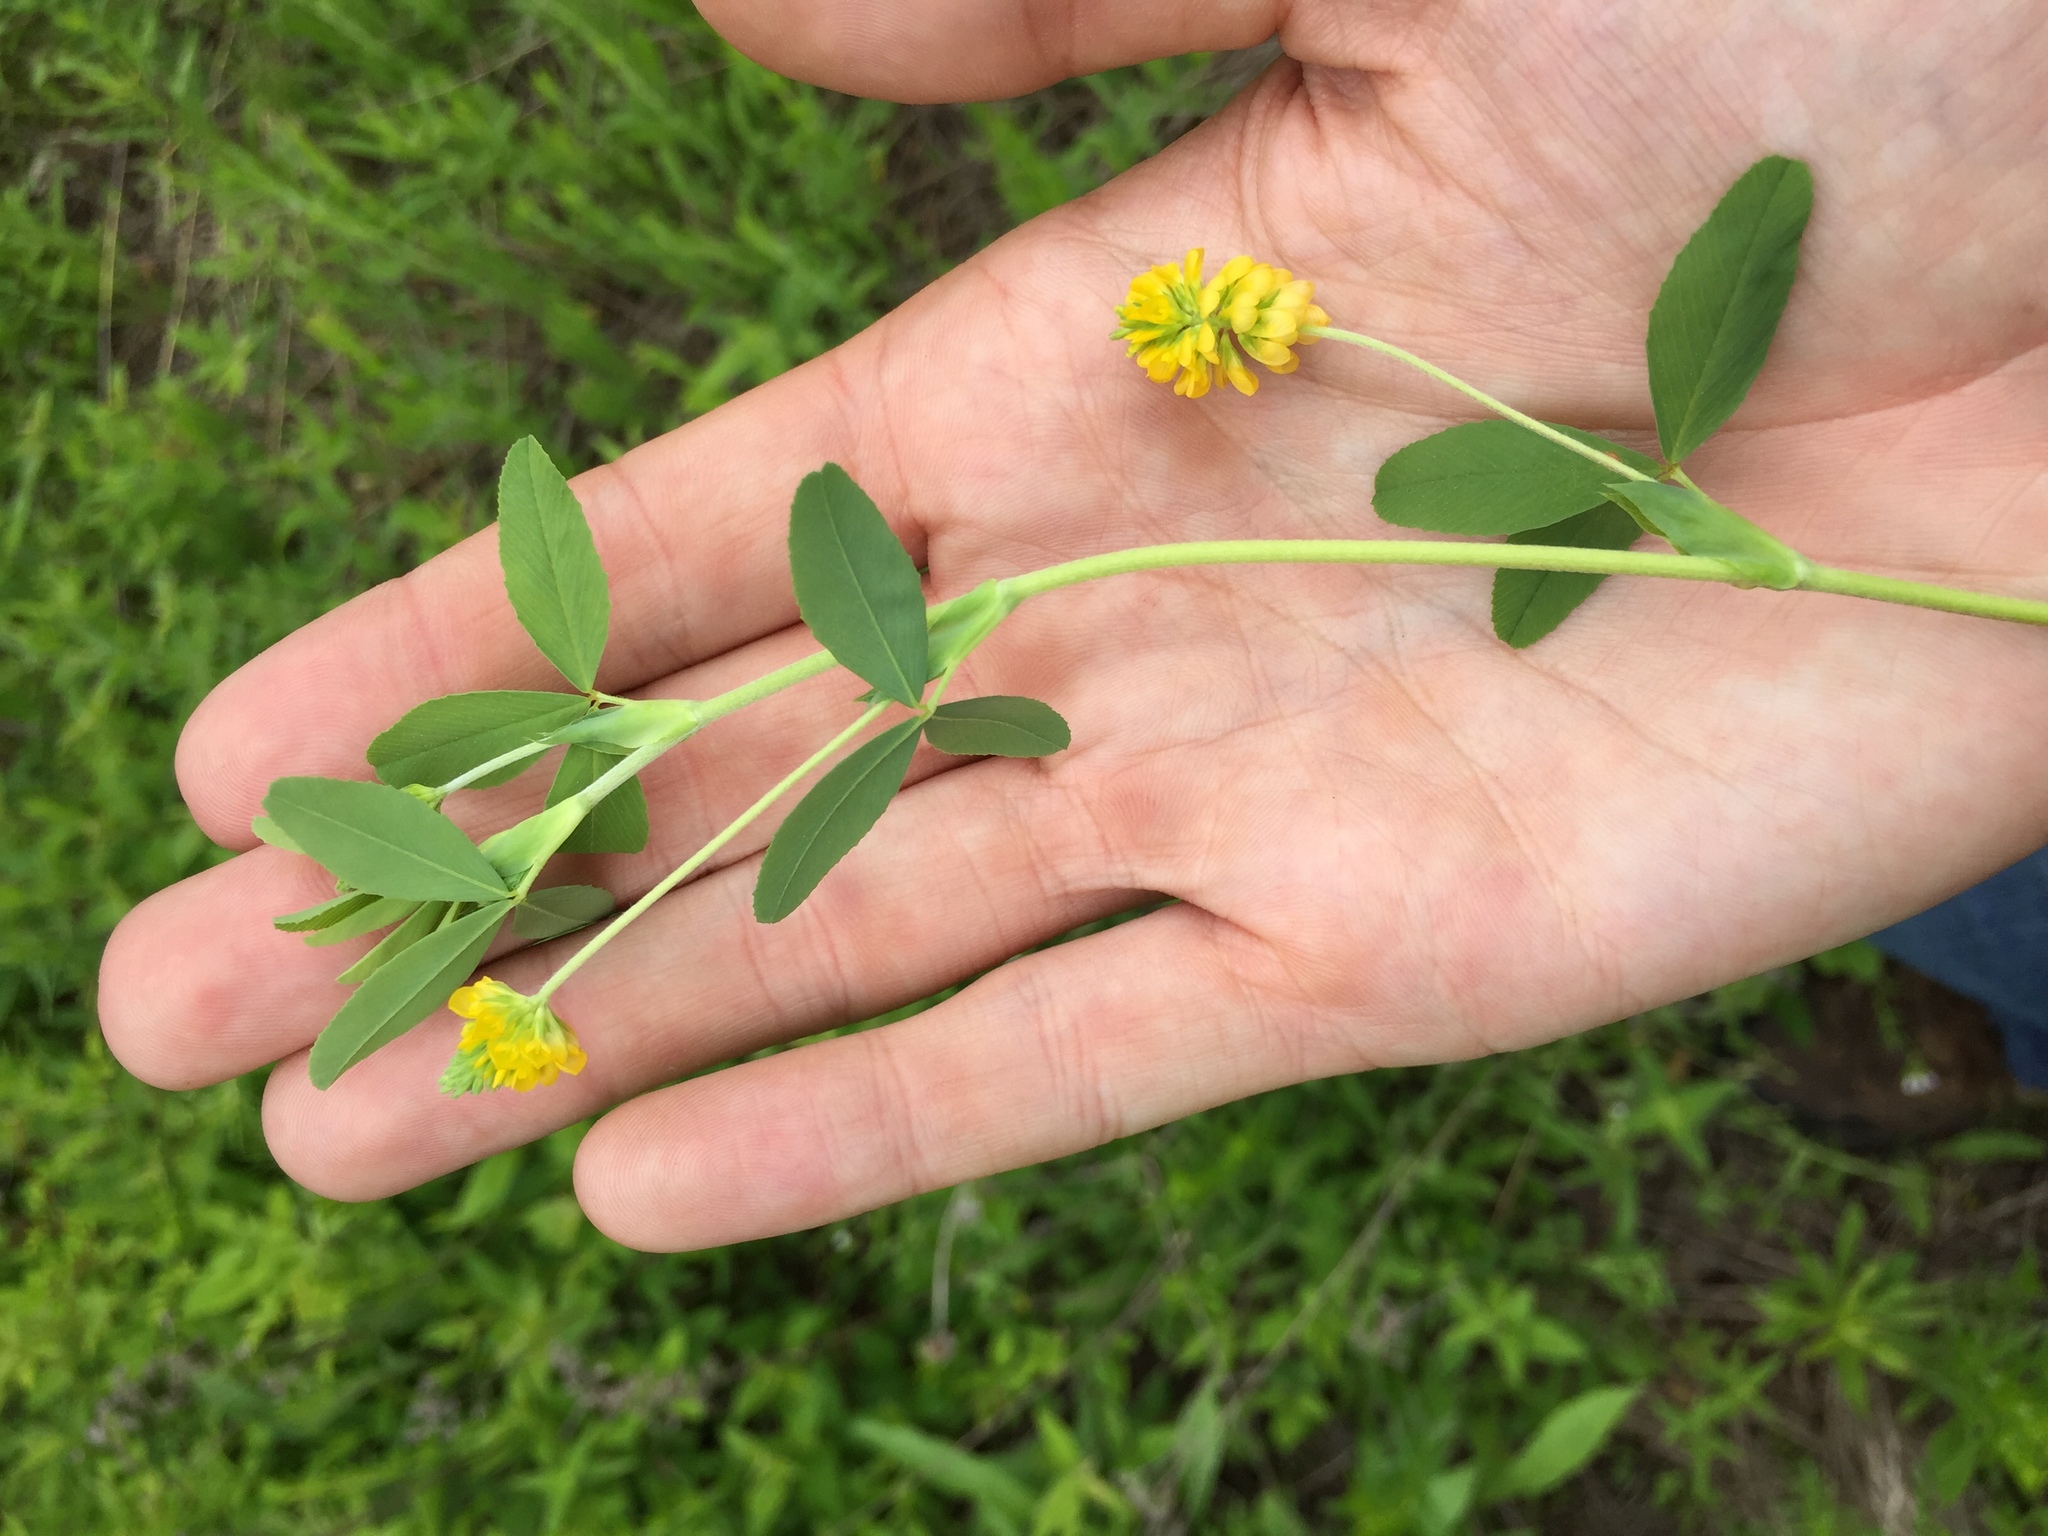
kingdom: Plantae
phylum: Tracheophyta
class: Magnoliopsida
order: Fabales
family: Fabaceae
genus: Trifolium
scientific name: Trifolium aureum
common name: Golden clover
